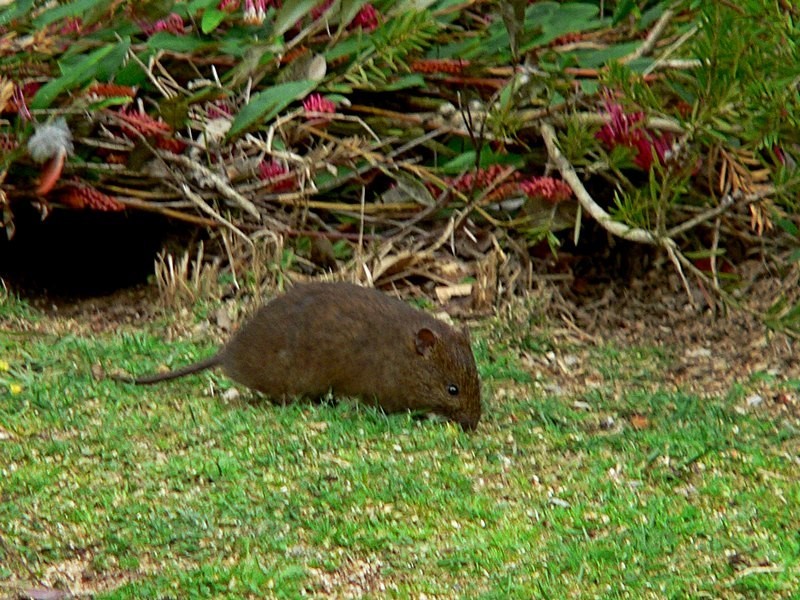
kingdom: Animalia
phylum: Chordata
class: Mammalia
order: Rodentia
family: Muridae
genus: Rattus
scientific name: Rattus lutreolus
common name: Australian swamp rat
